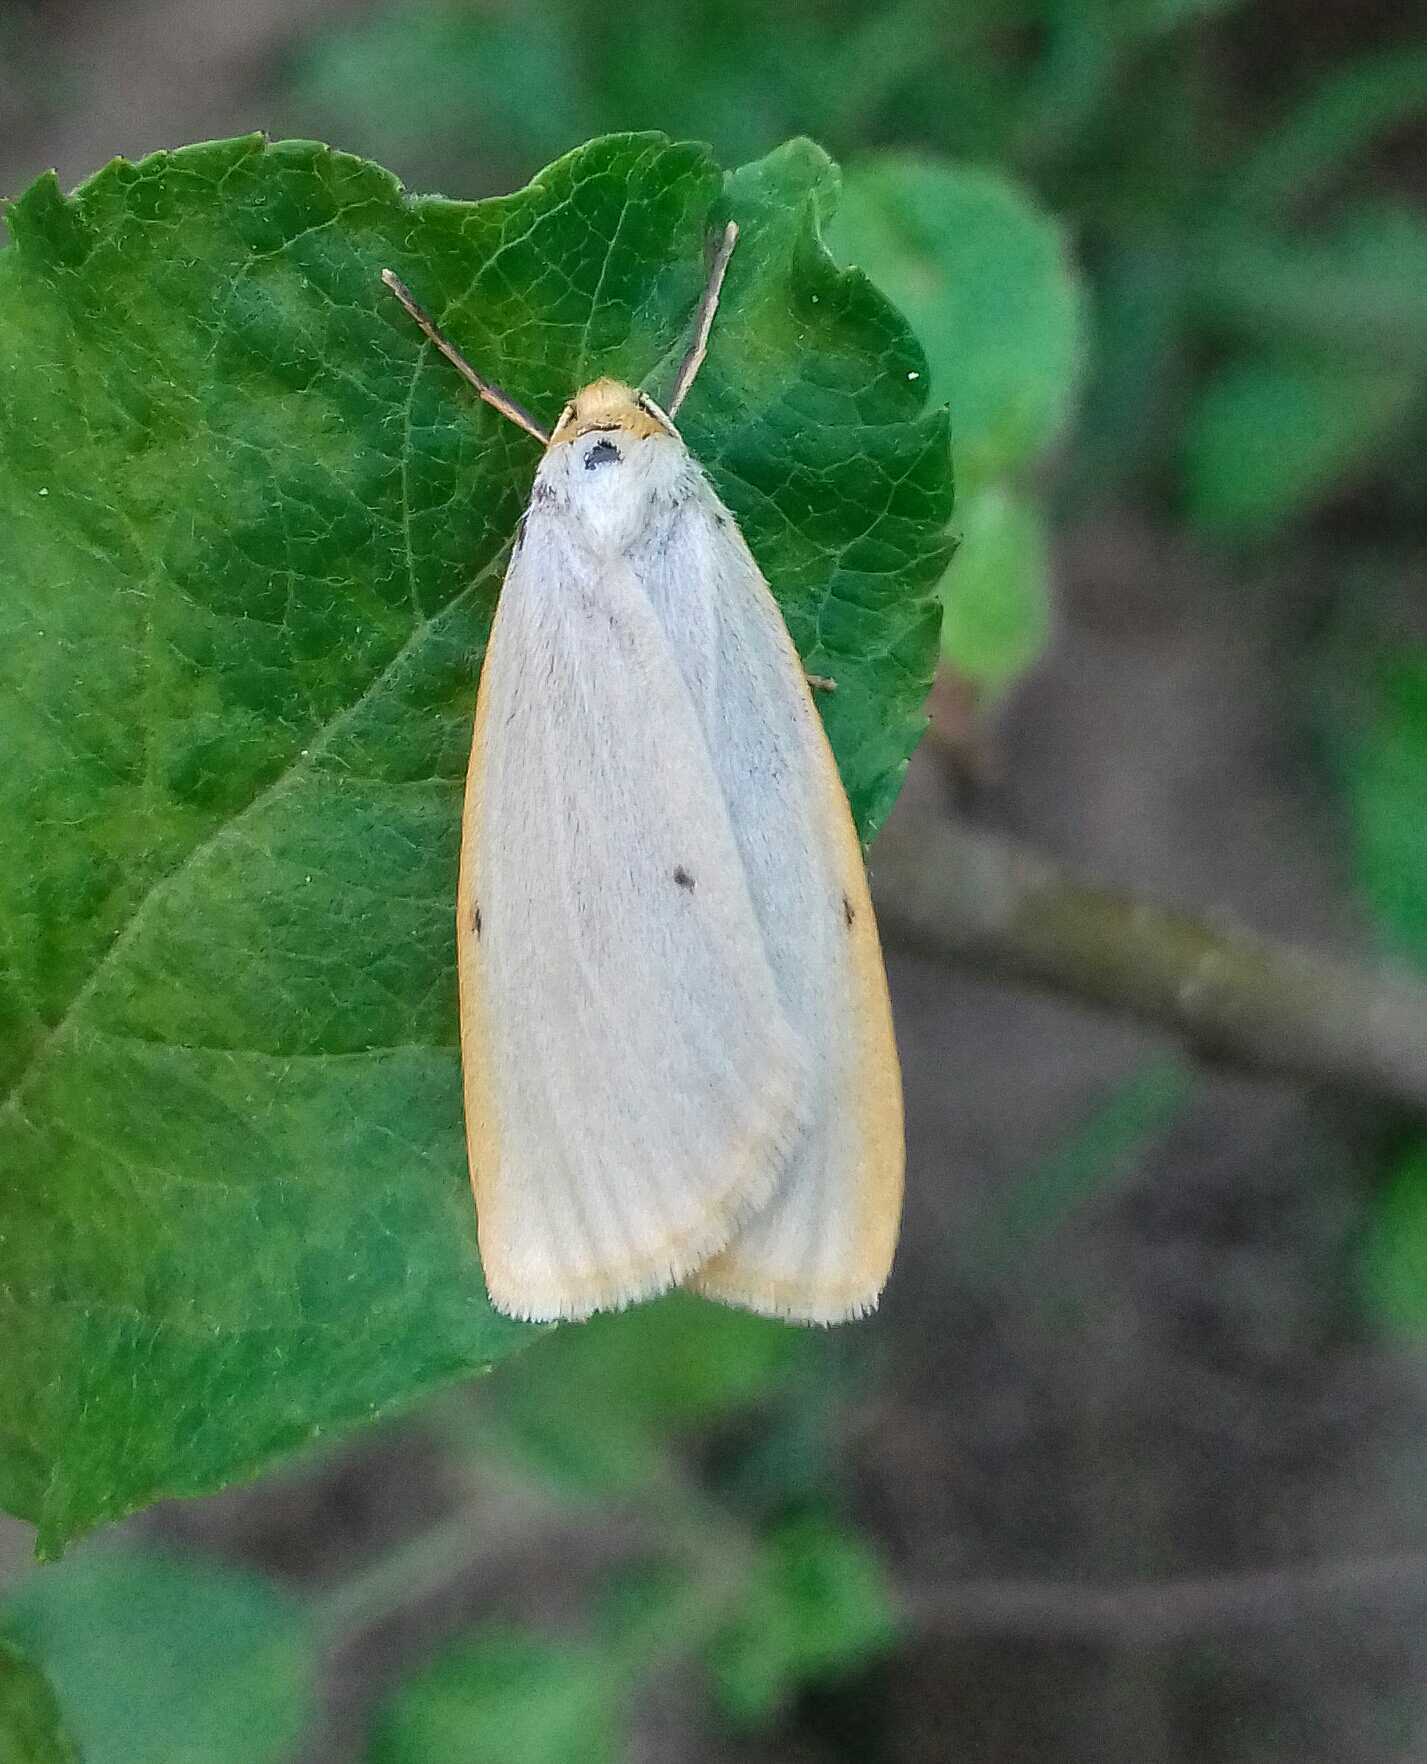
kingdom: Animalia
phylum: Arthropoda
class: Insecta
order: Lepidoptera
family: Erebidae
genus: Cybosia
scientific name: Cybosia mesomella
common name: Four-dotted footman
